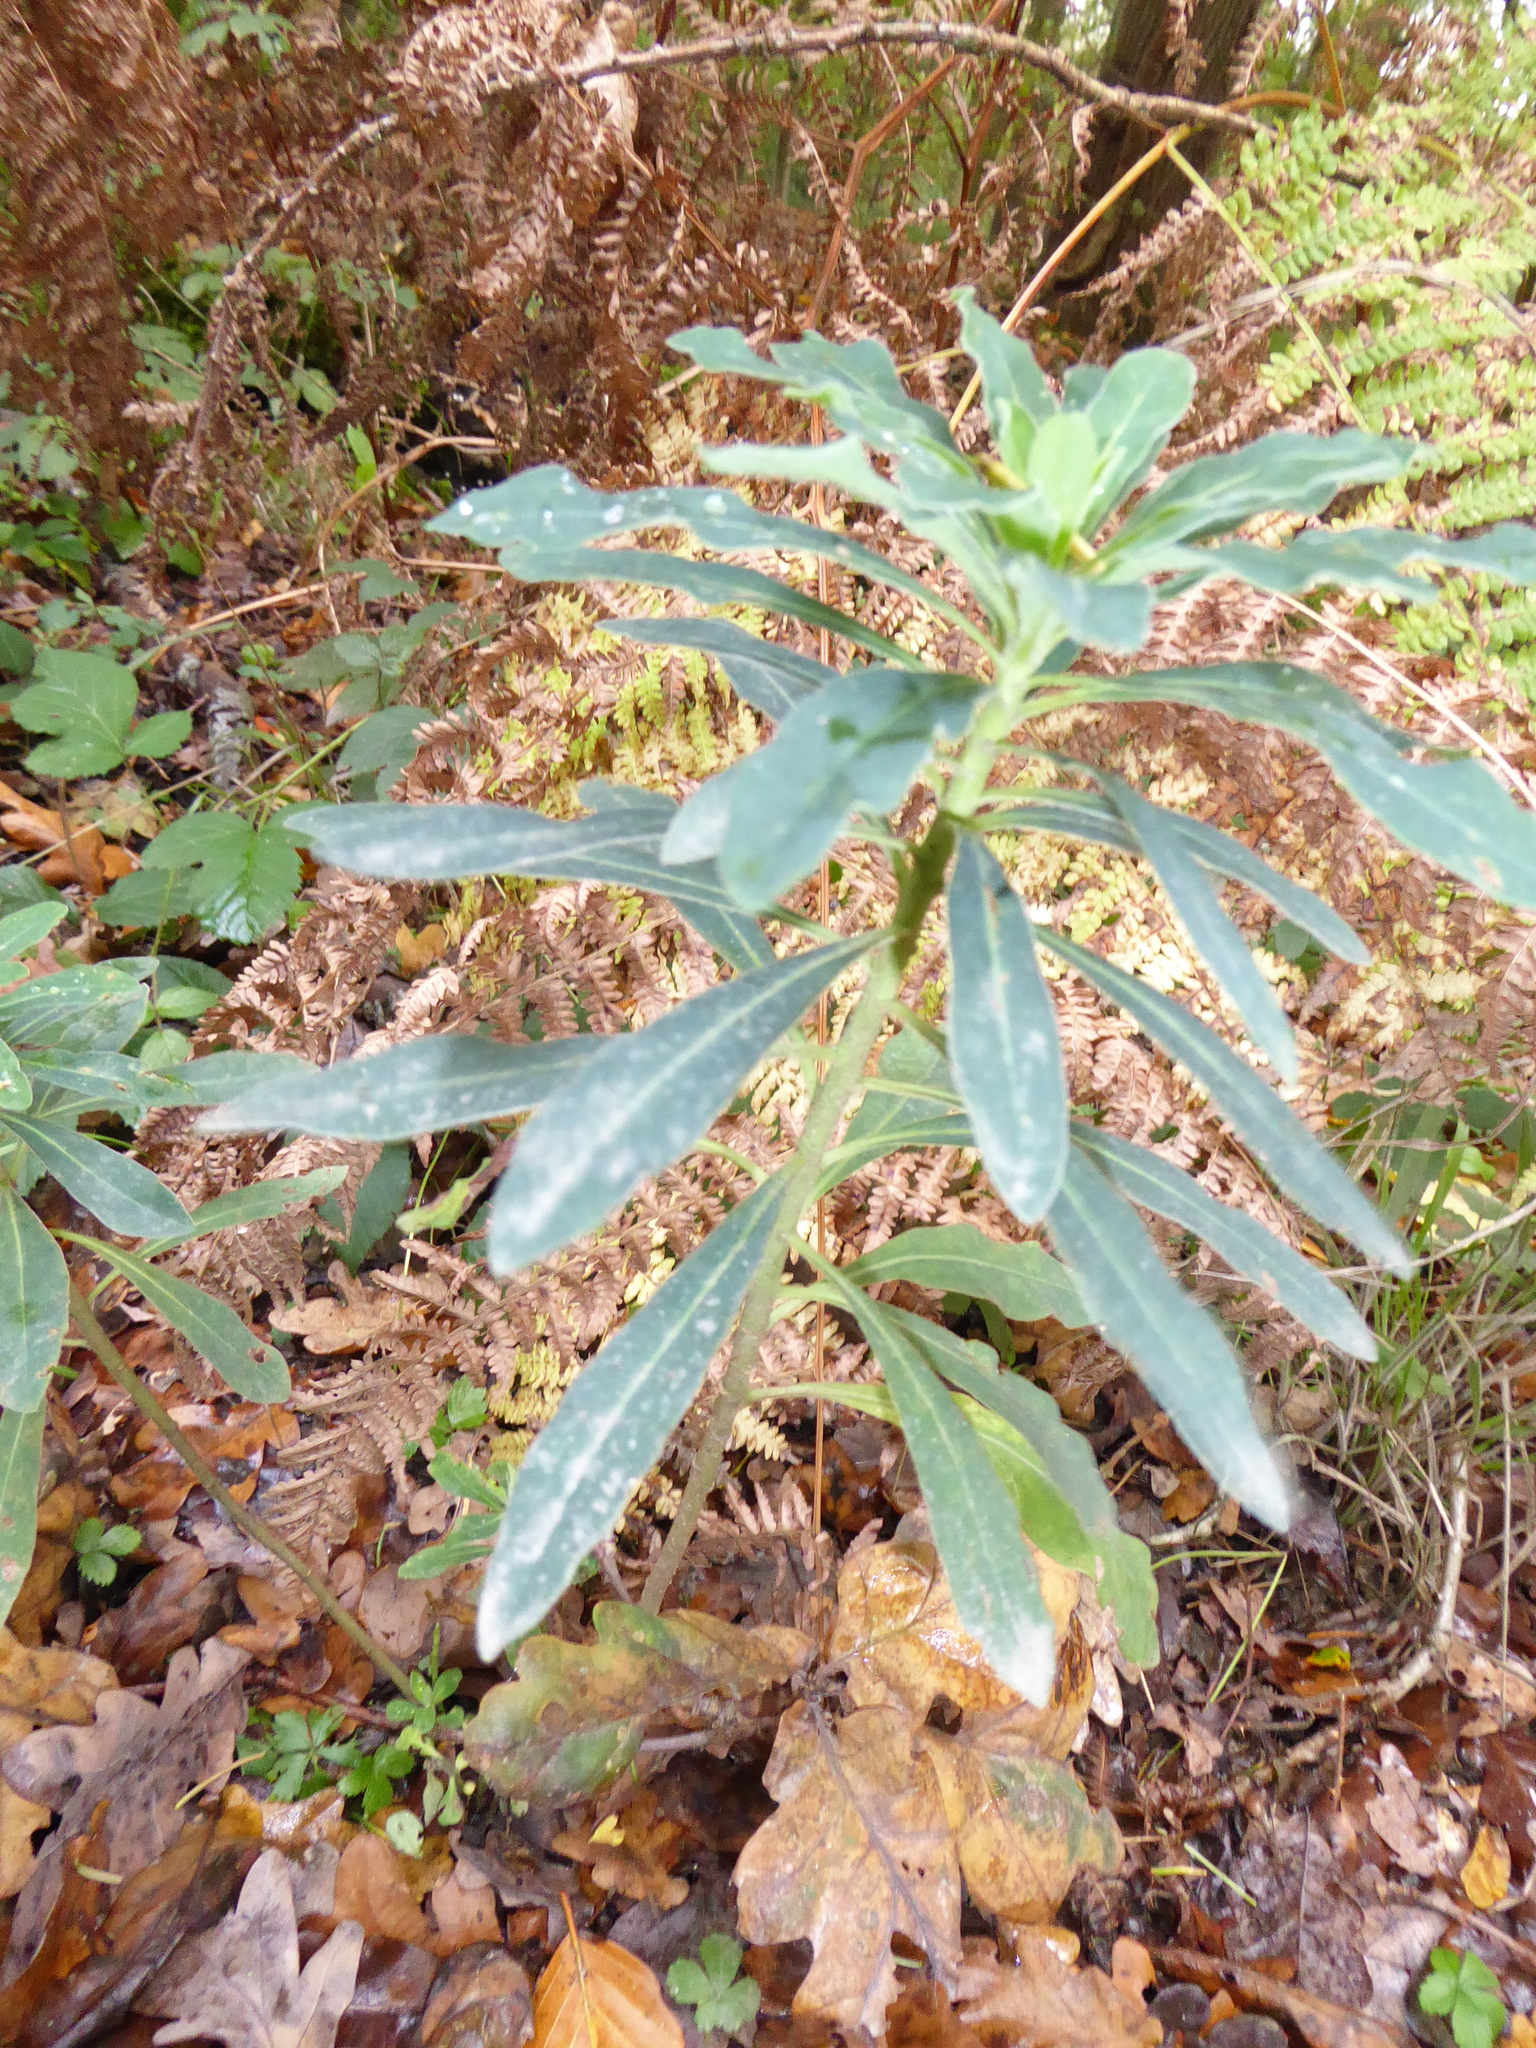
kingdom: Plantae
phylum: Tracheophyta
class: Magnoliopsida
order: Malpighiales
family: Euphorbiaceae
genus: Euphorbia
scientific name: Euphorbia amygdaloides
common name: Wood spurge
